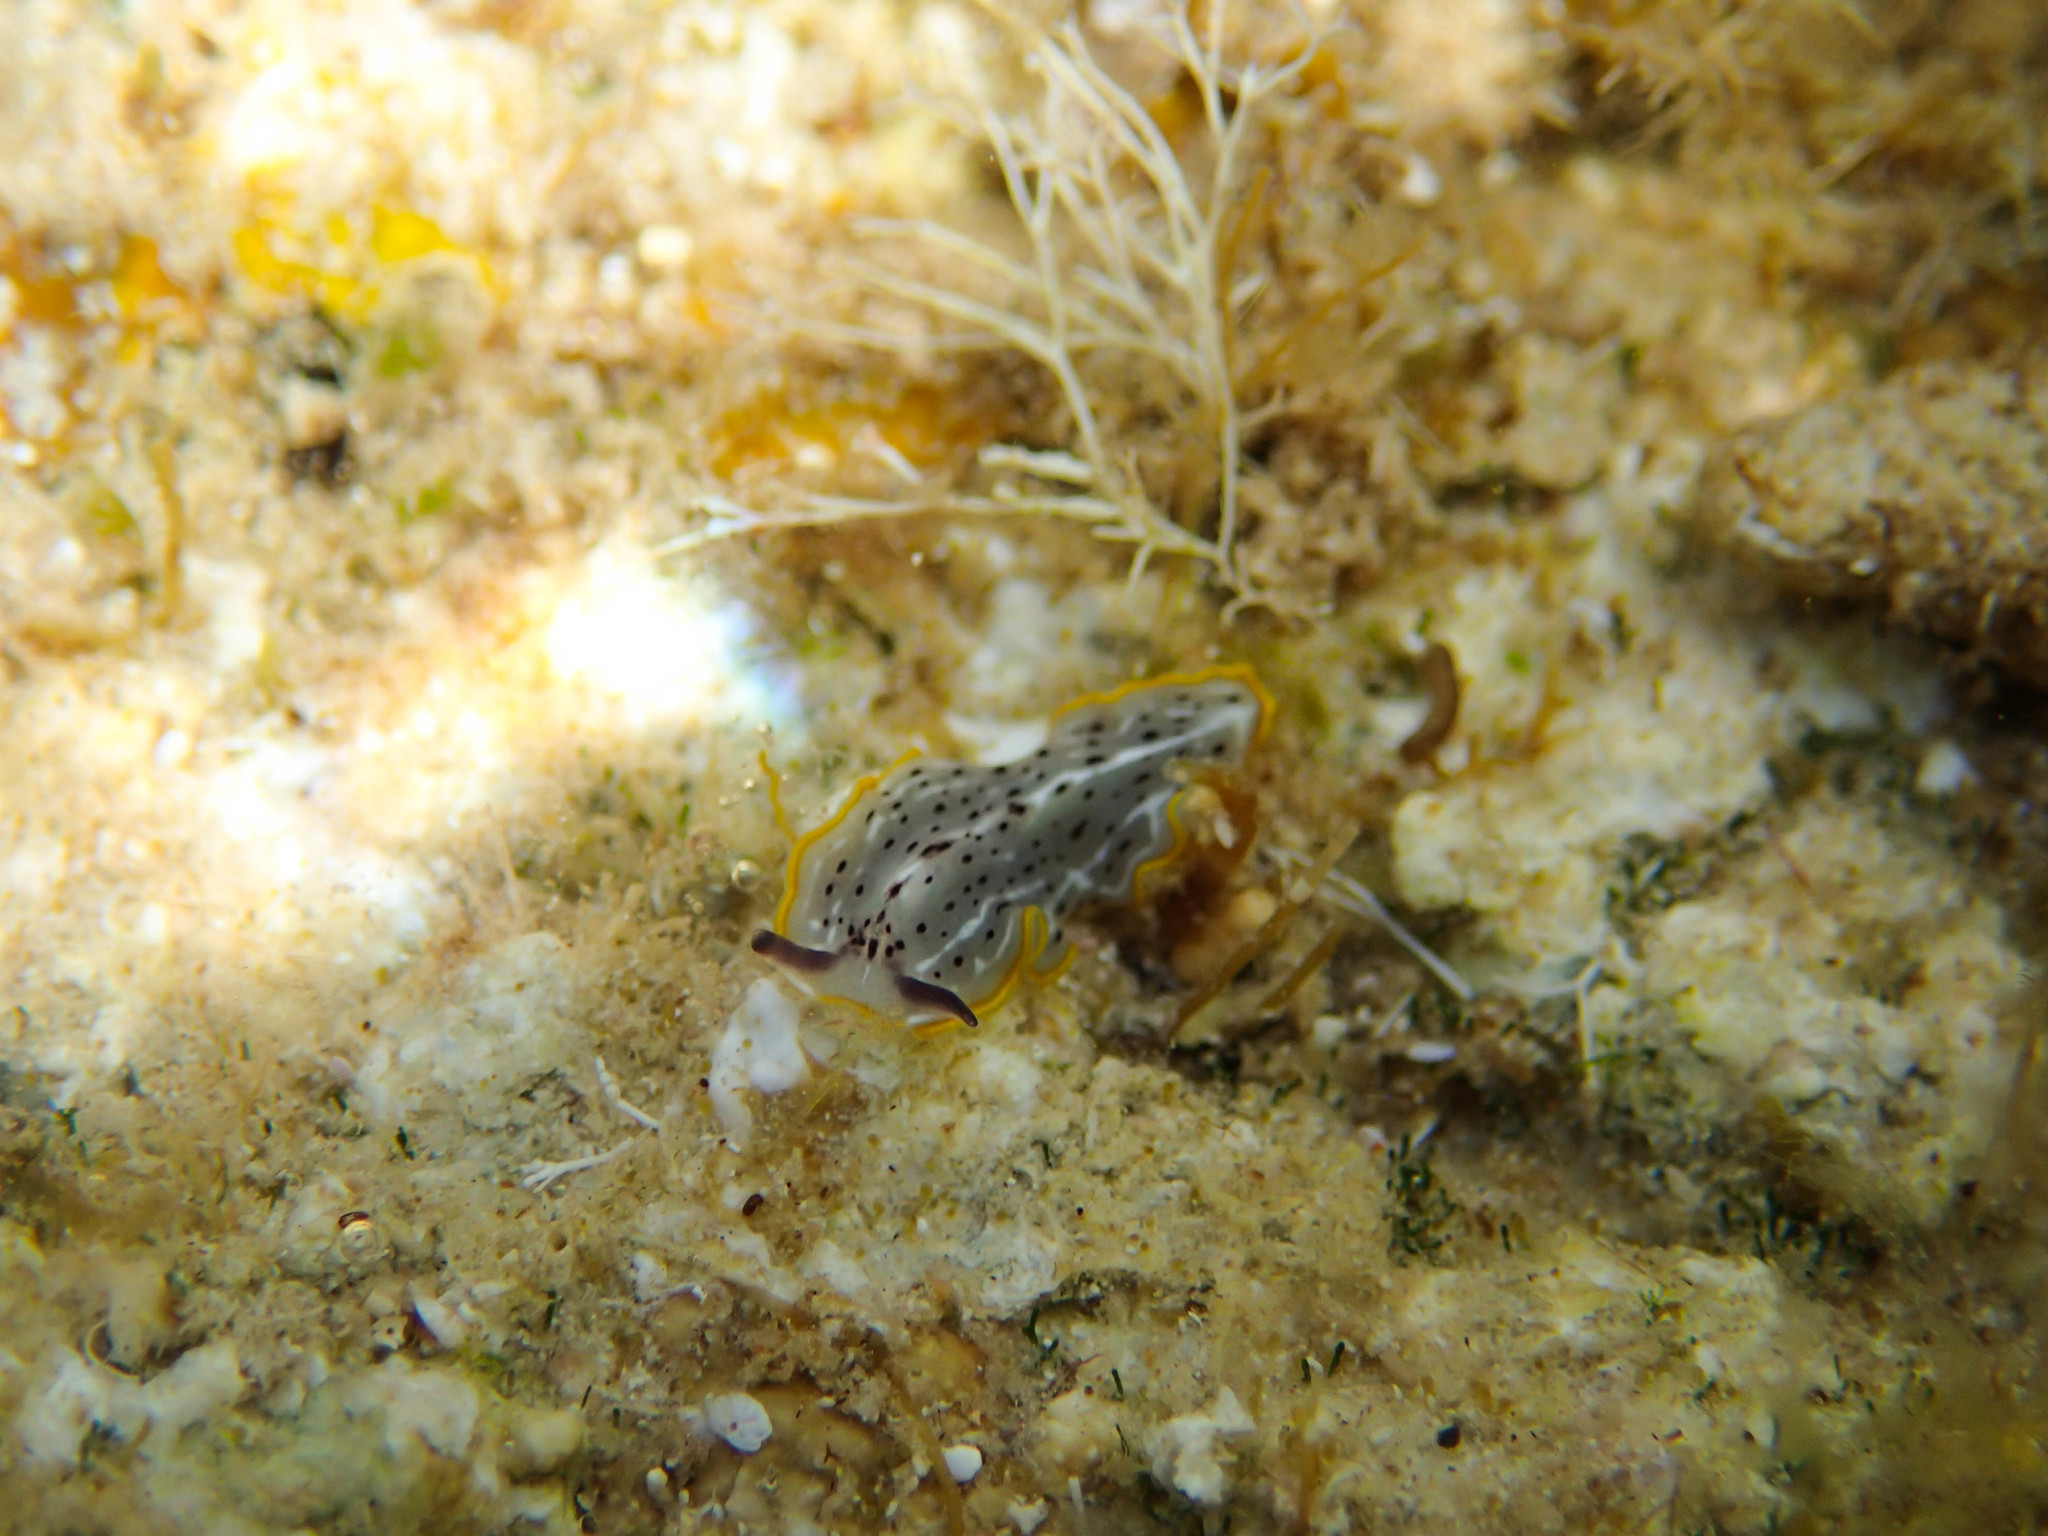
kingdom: Animalia
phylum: Platyhelminthes
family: Euryleptidae
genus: Prostheceraeus
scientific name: Prostheceraeus moseleyi
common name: Moseley's flatworm
